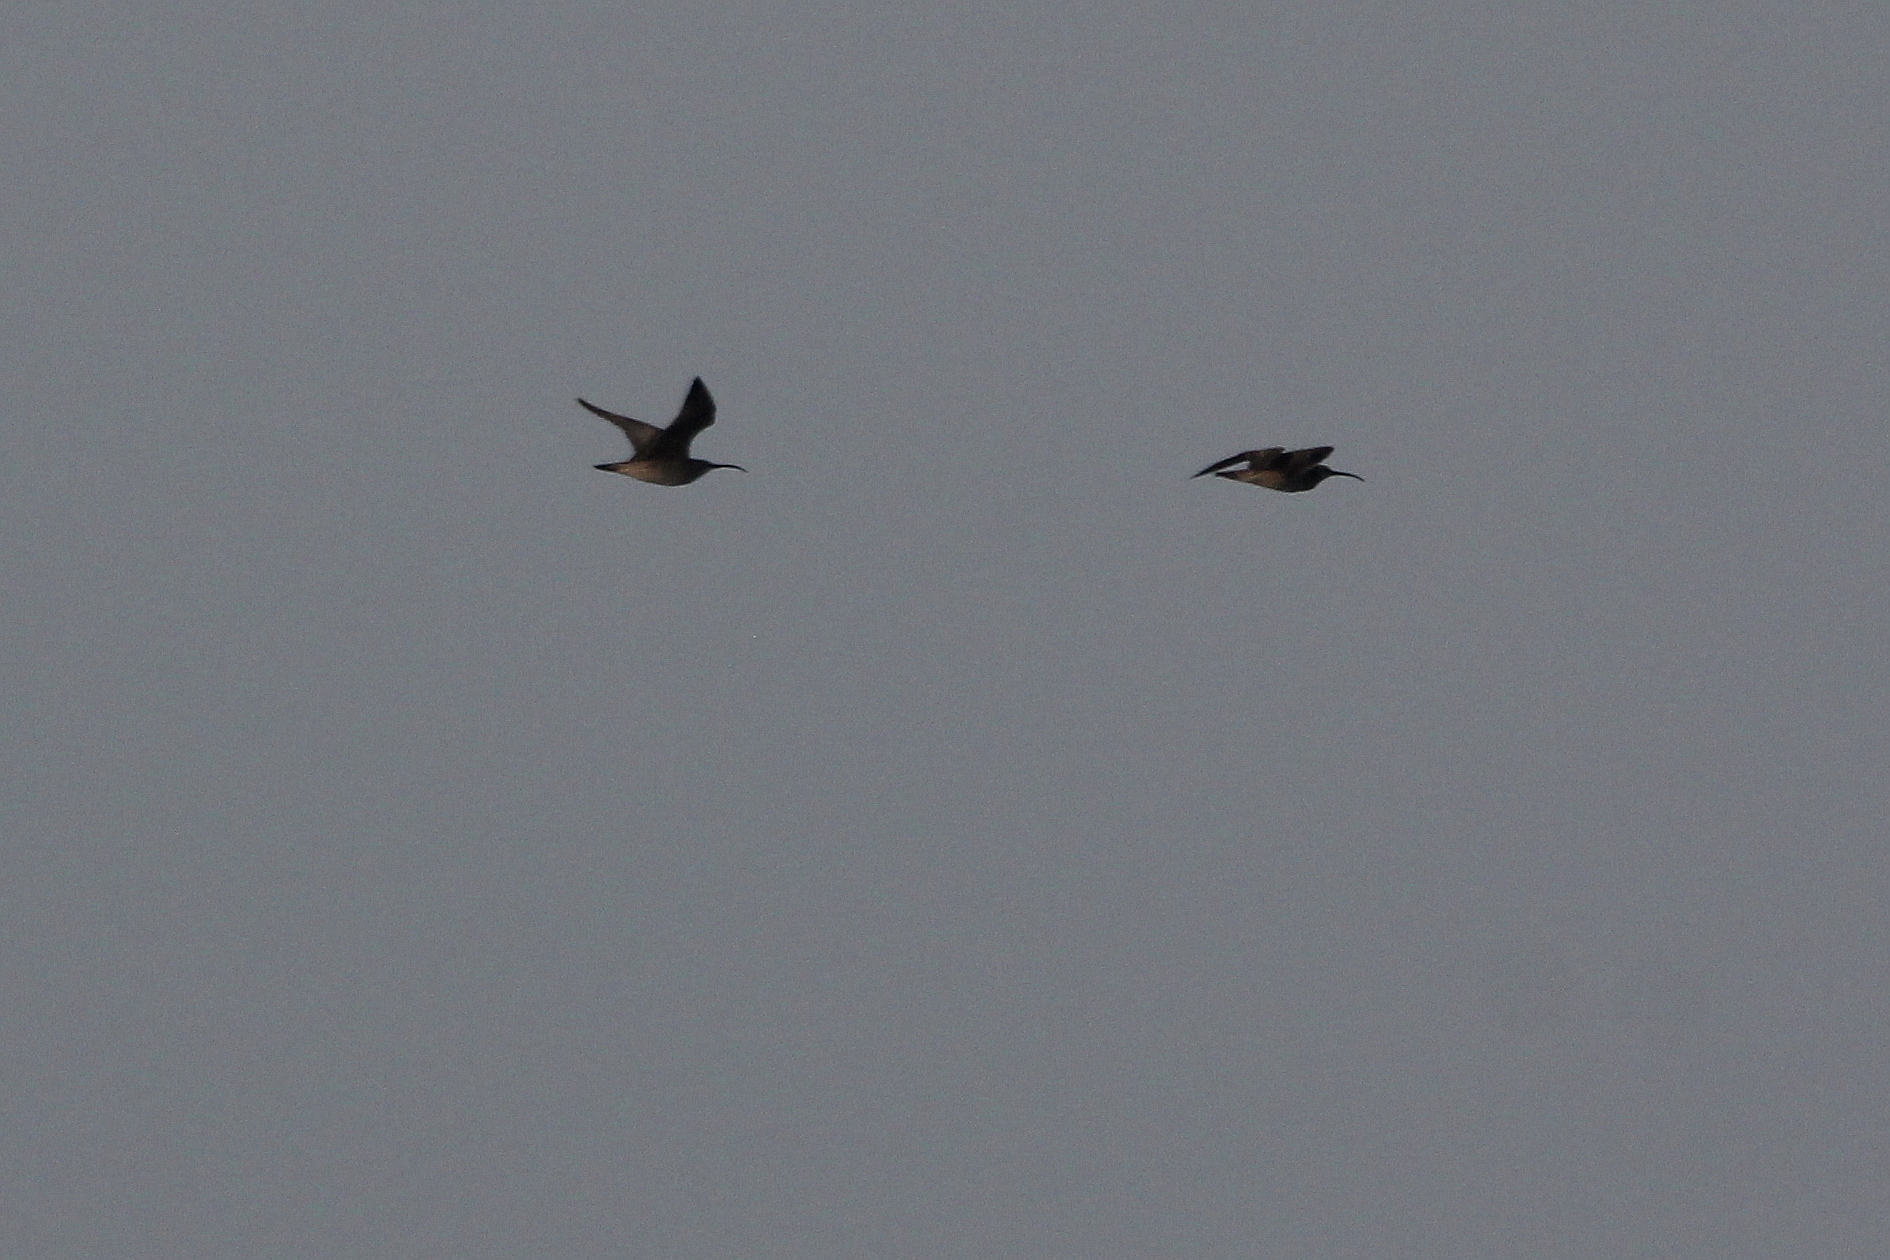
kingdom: Animalia
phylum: Chordata
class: Aves
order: Charadriiformes
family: Scolopacidae
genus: Numenius
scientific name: Numenius phaeopus
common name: Whimbrel
